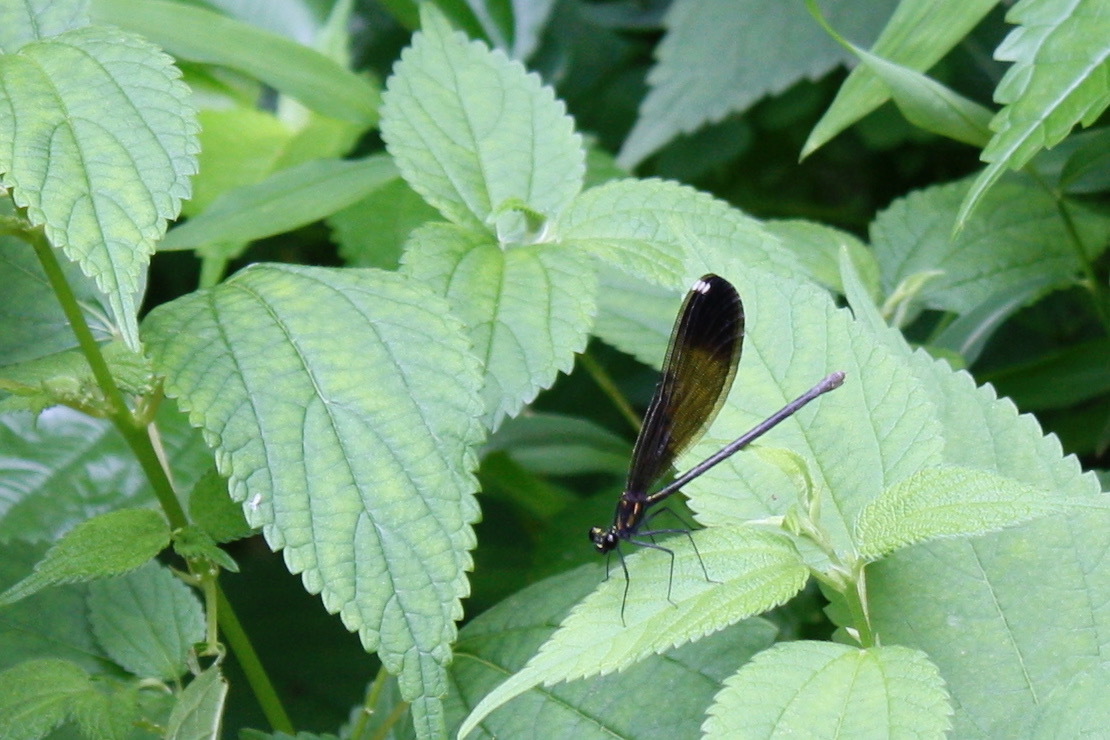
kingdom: Animalia
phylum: Arthropoda
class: Insecta
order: Odonata
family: Calopterygidae
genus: Calopteryx
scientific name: Calopteryx maculata
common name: Ebony jewelwing
